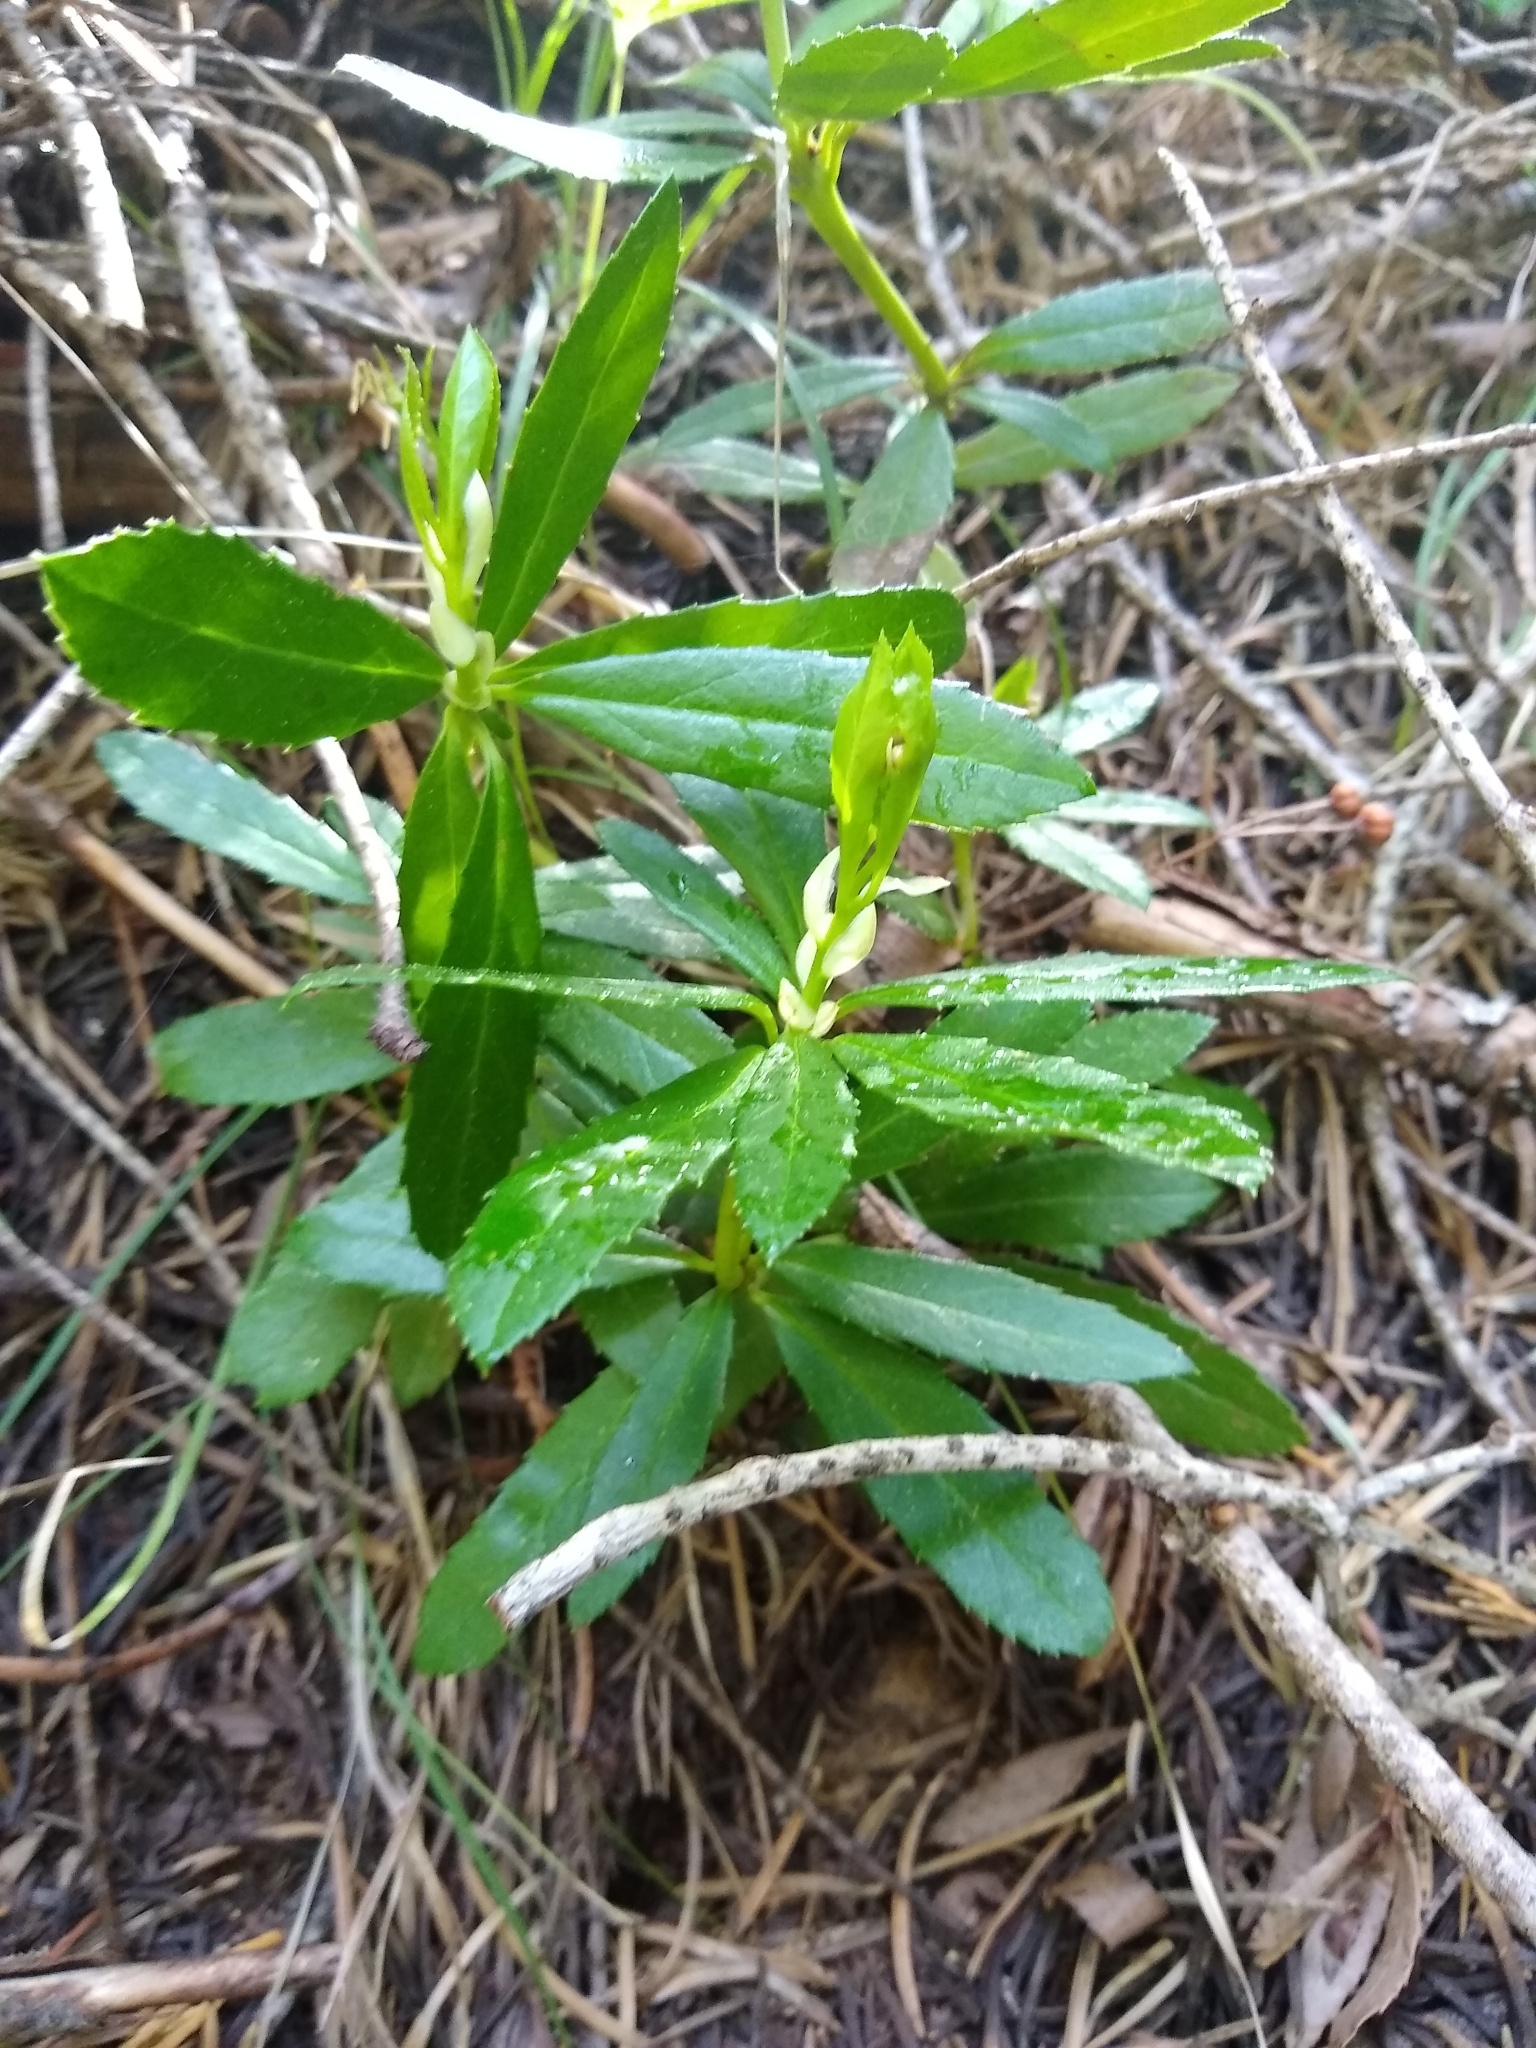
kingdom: Plantae
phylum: Tracheophyta
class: Magnoliopsida
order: Ericales
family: Ericaceae
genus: Chimaphila
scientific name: Chimaphila umbellata
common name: Pipsissewa
